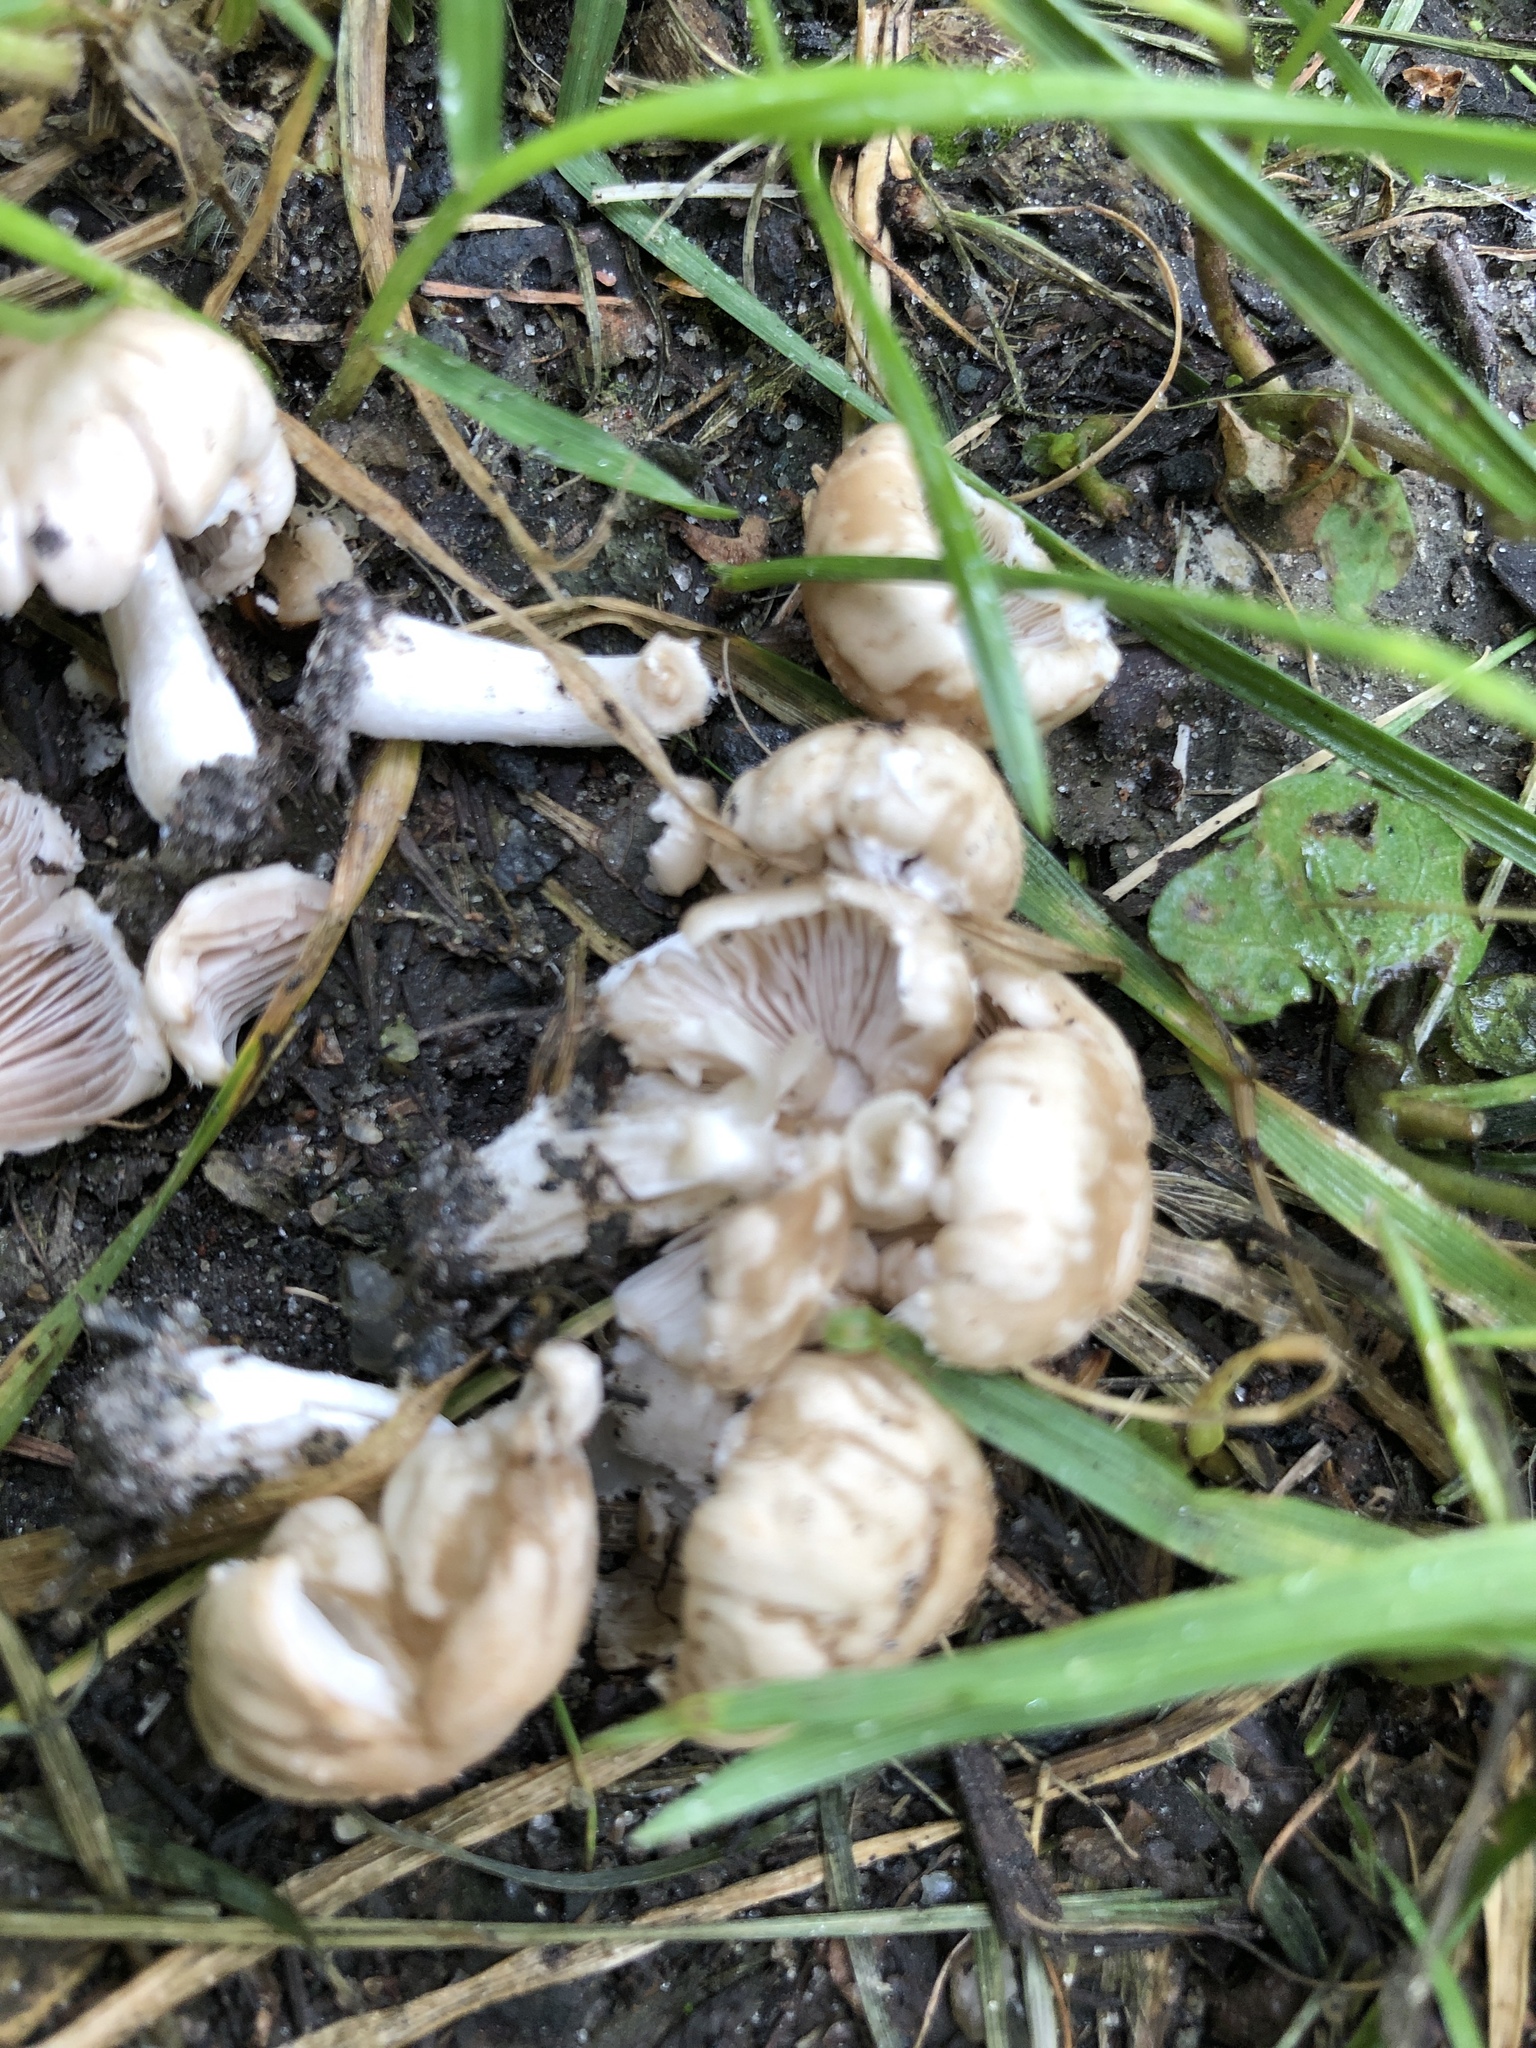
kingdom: Fungi
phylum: Basidiomycota
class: Agaricomycetes
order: Agaricales
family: Psathyrellaceae
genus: Candolleomyces
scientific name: Candolleomyces candolleanus
